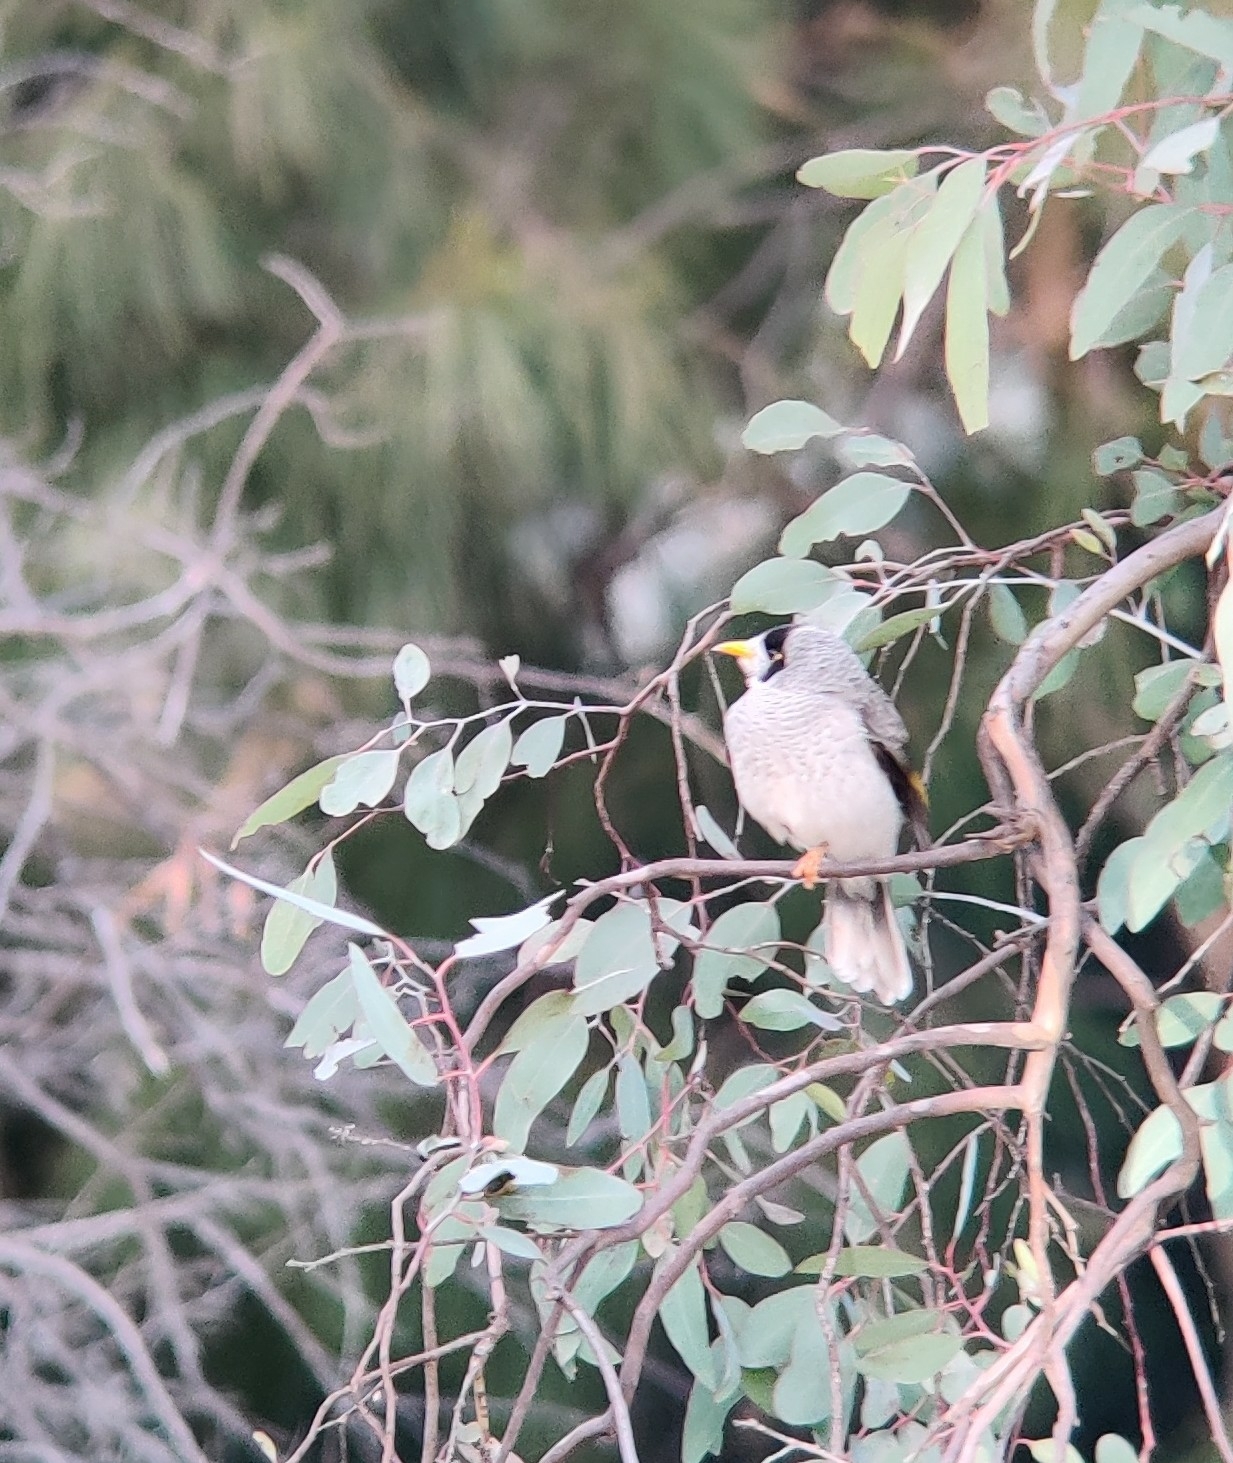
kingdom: Animalia
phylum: Chordata
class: Aves
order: Passeriformes
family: Meliphagidae
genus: Manorina
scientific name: Manorina melanocephala
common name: Noisy miner
